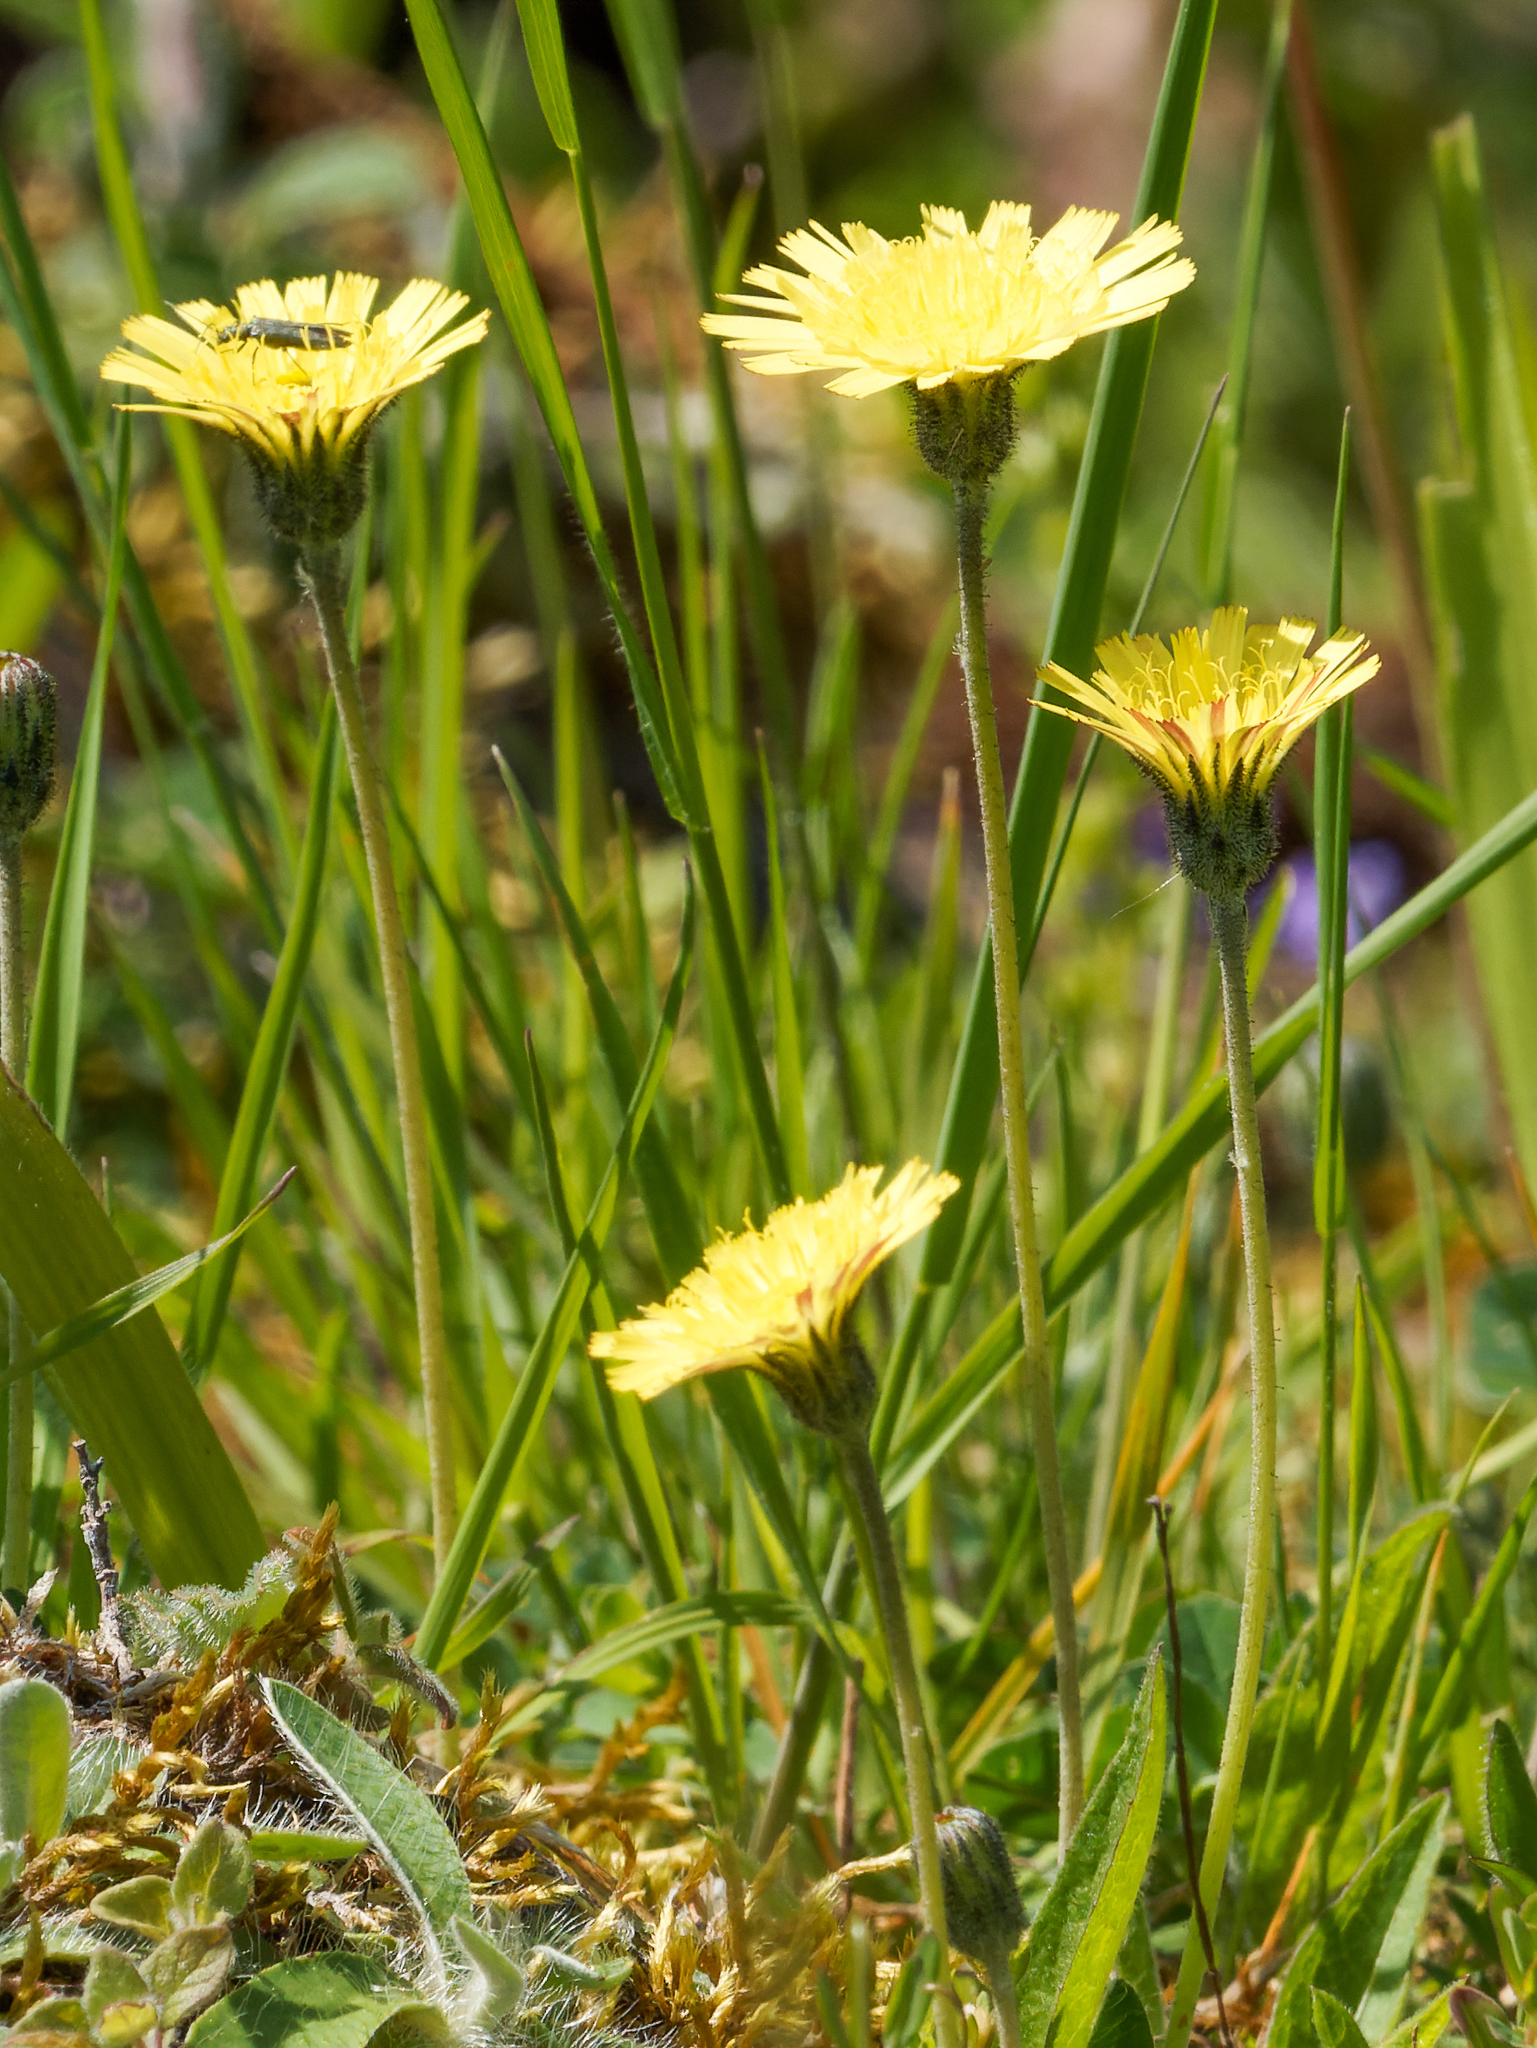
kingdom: Plantae
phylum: Tracheophyta
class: Magnoliopsida
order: Asterales
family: Asteraceae
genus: Pilosella
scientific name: Pilosella officinarum
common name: Mouse-ear hawkweed
